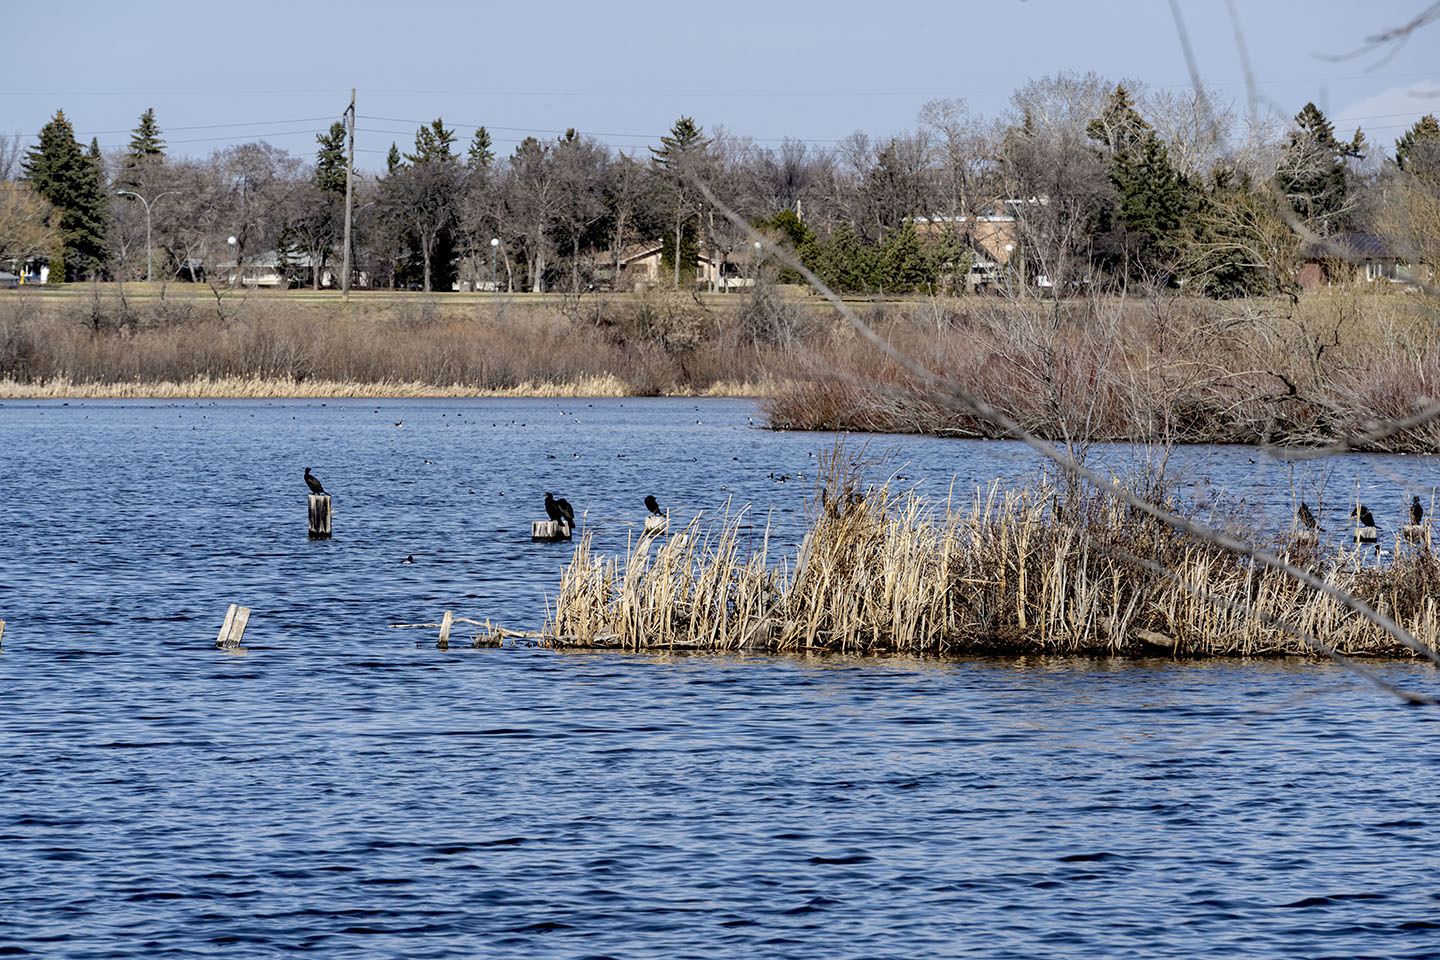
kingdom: Animalia
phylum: Chordata
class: Aves
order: Suliformes
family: Phalacrocoracidae
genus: Phalacrocorax
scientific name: Phalacrocorax auritus
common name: Double-crested cormorant
